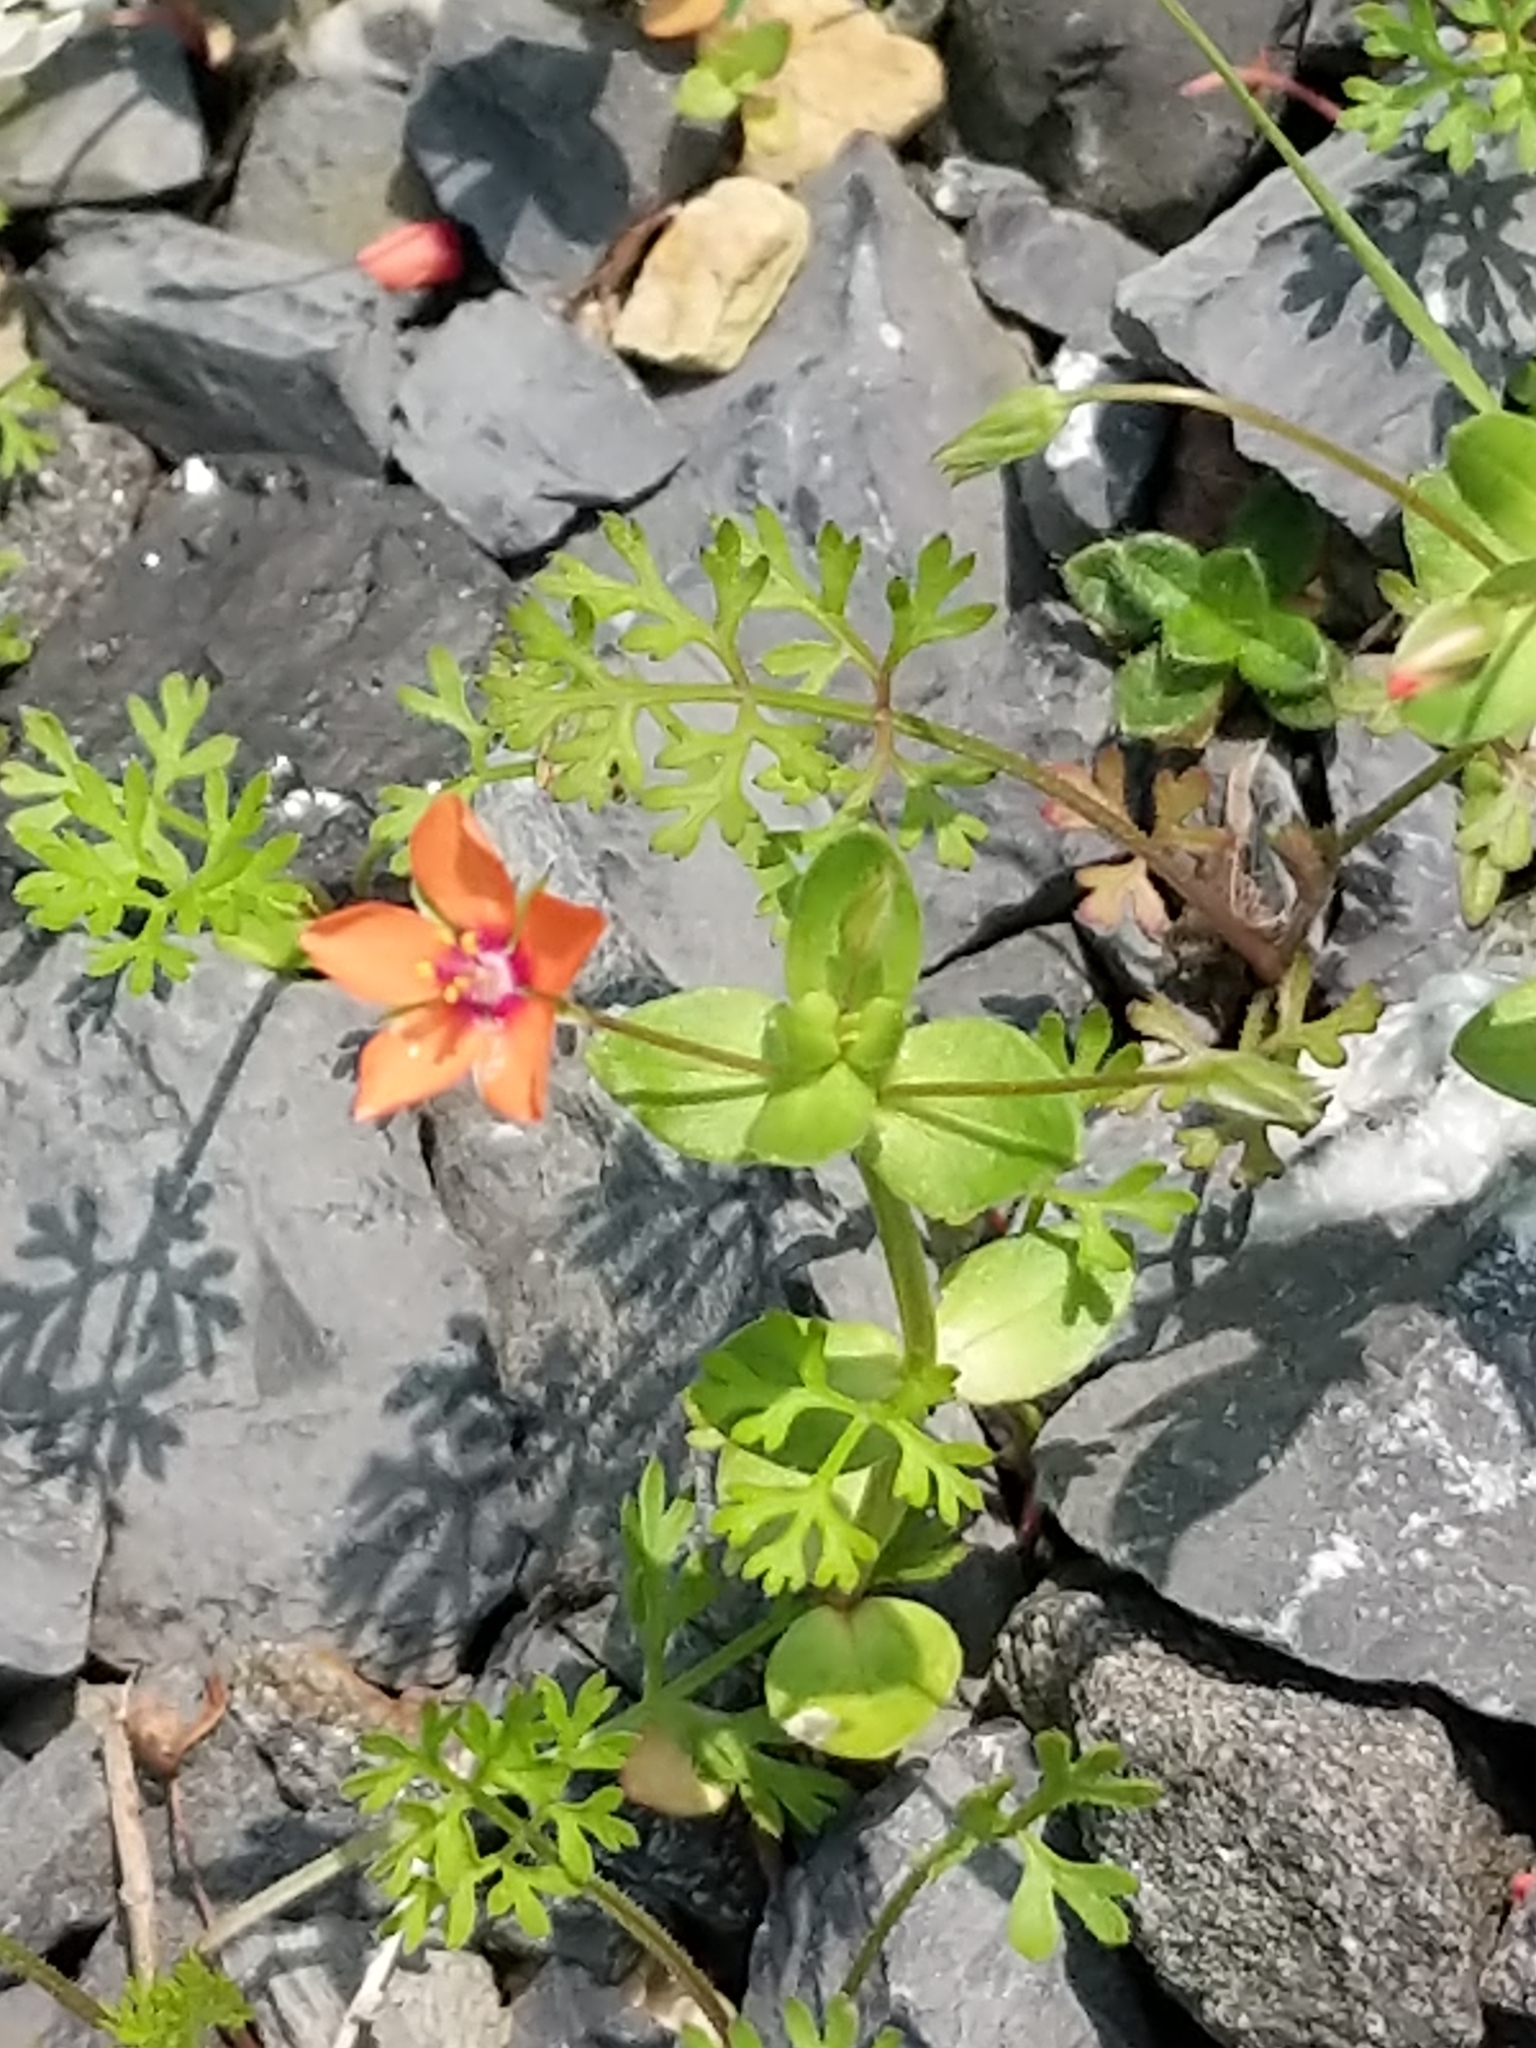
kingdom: Plantae
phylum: Tracheophyta
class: Magnoliopsida
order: Ericales
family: Primulaceae
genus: Lysimachia
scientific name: Lysimachia arvensis
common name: Scarlet pimpernel
